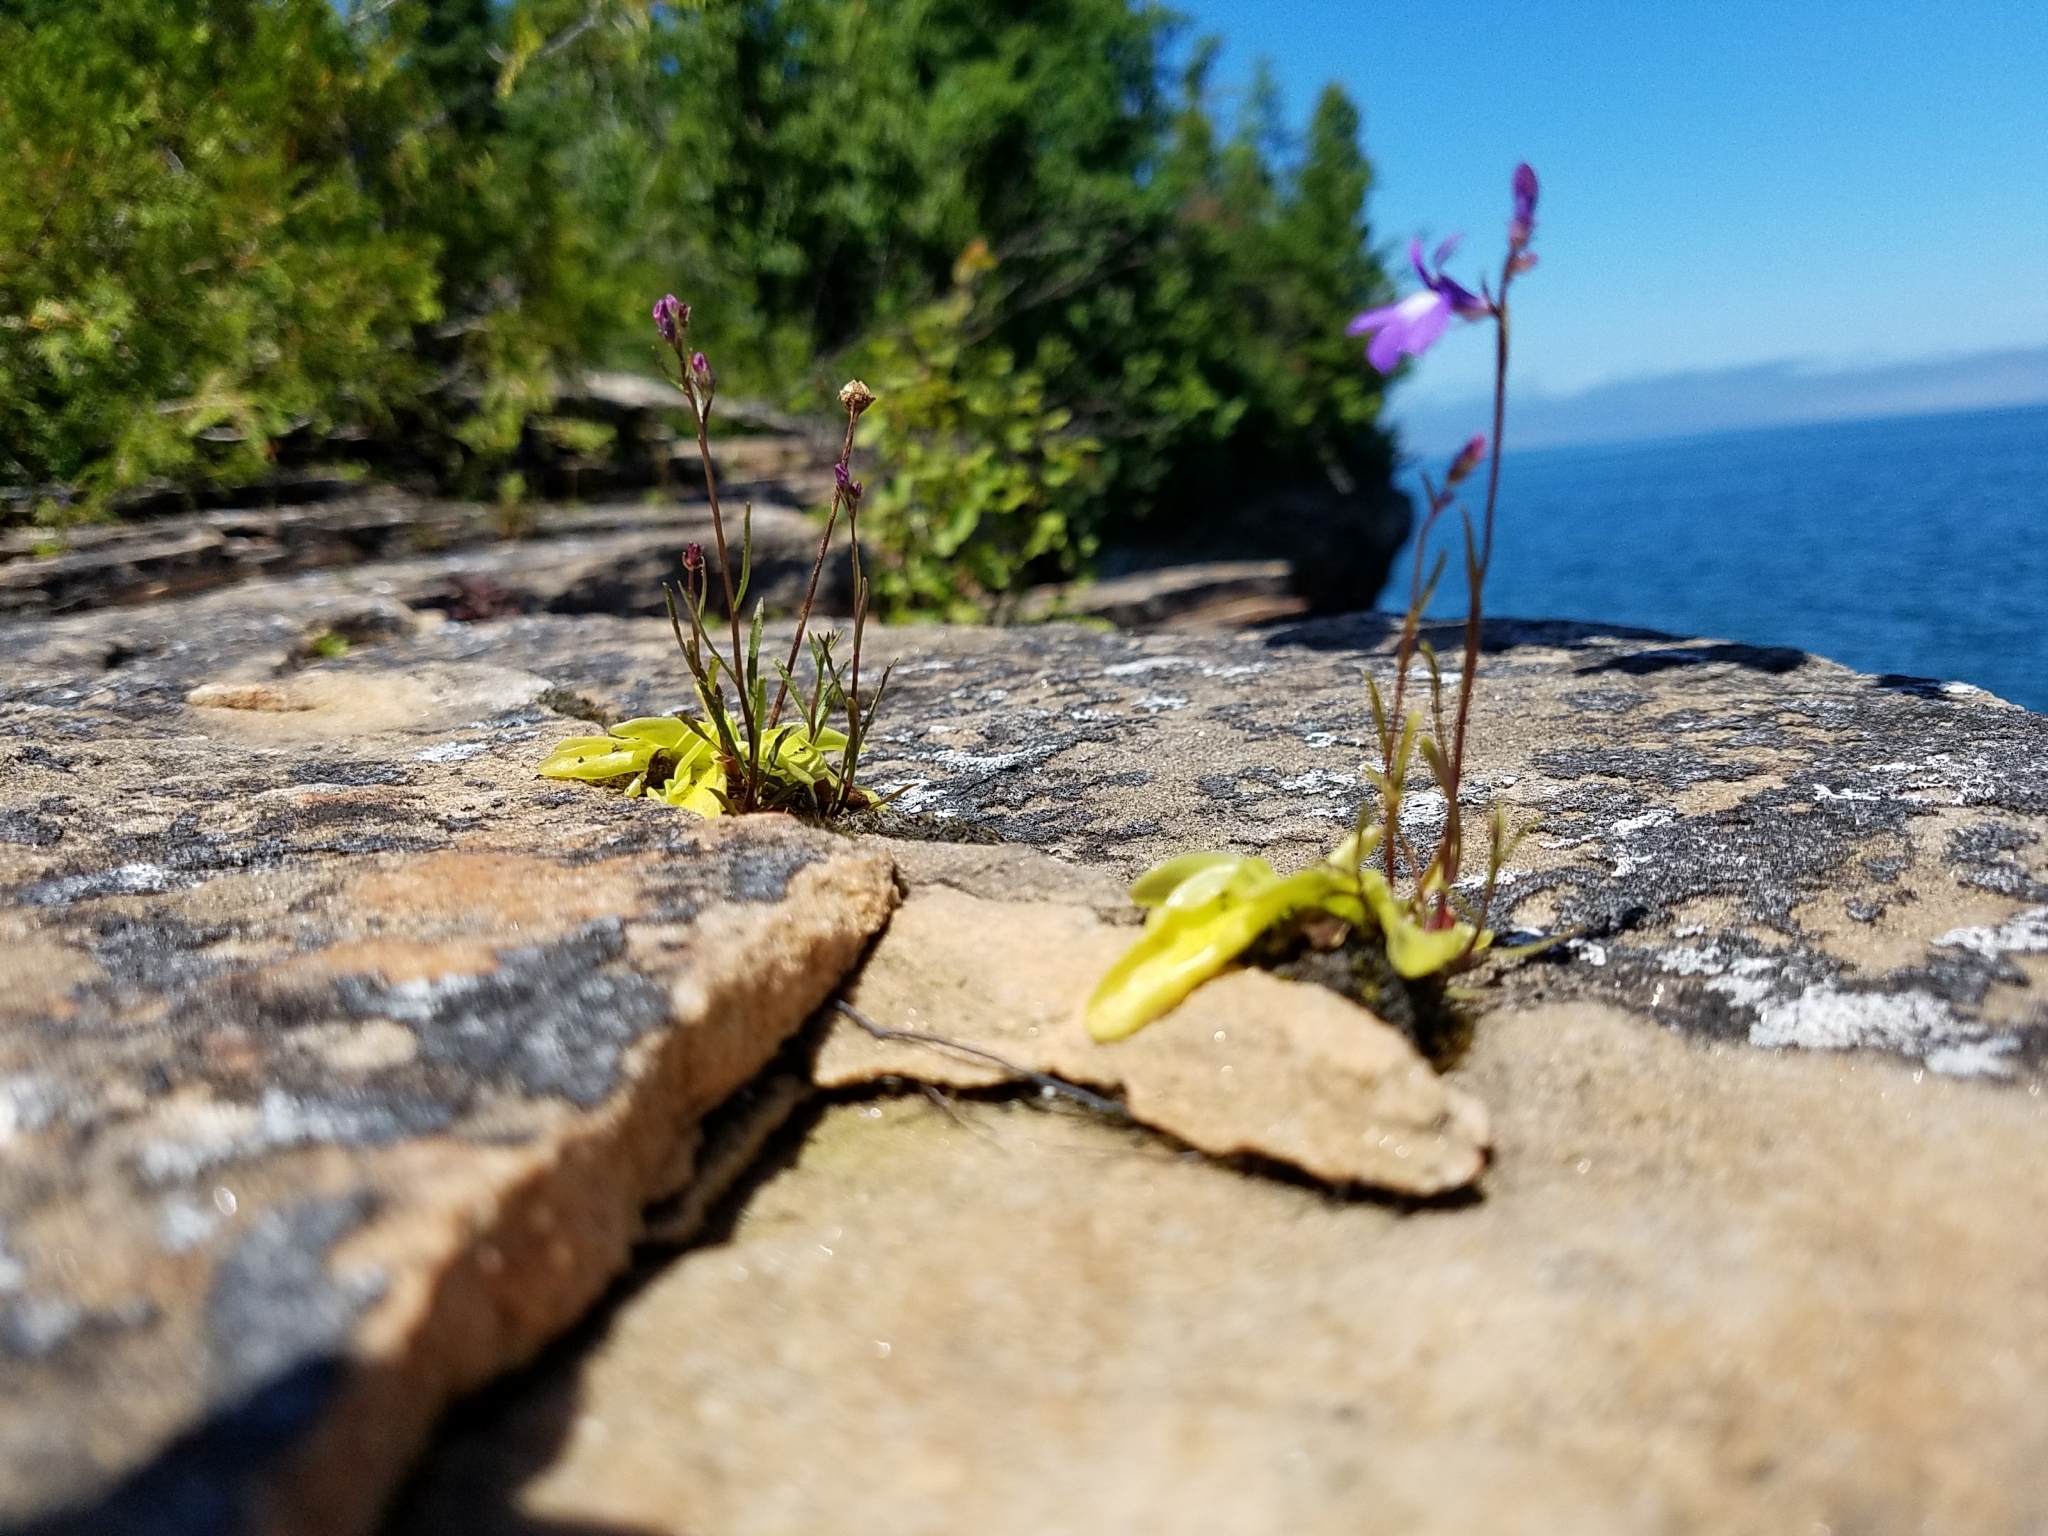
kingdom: Plantae
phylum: Tracheophyta
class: Magnoliopsida
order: Lamiales
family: Lentibulariaceae
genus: Pinguicula
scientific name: Pinguicula vulgaris
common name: Common butterwort
